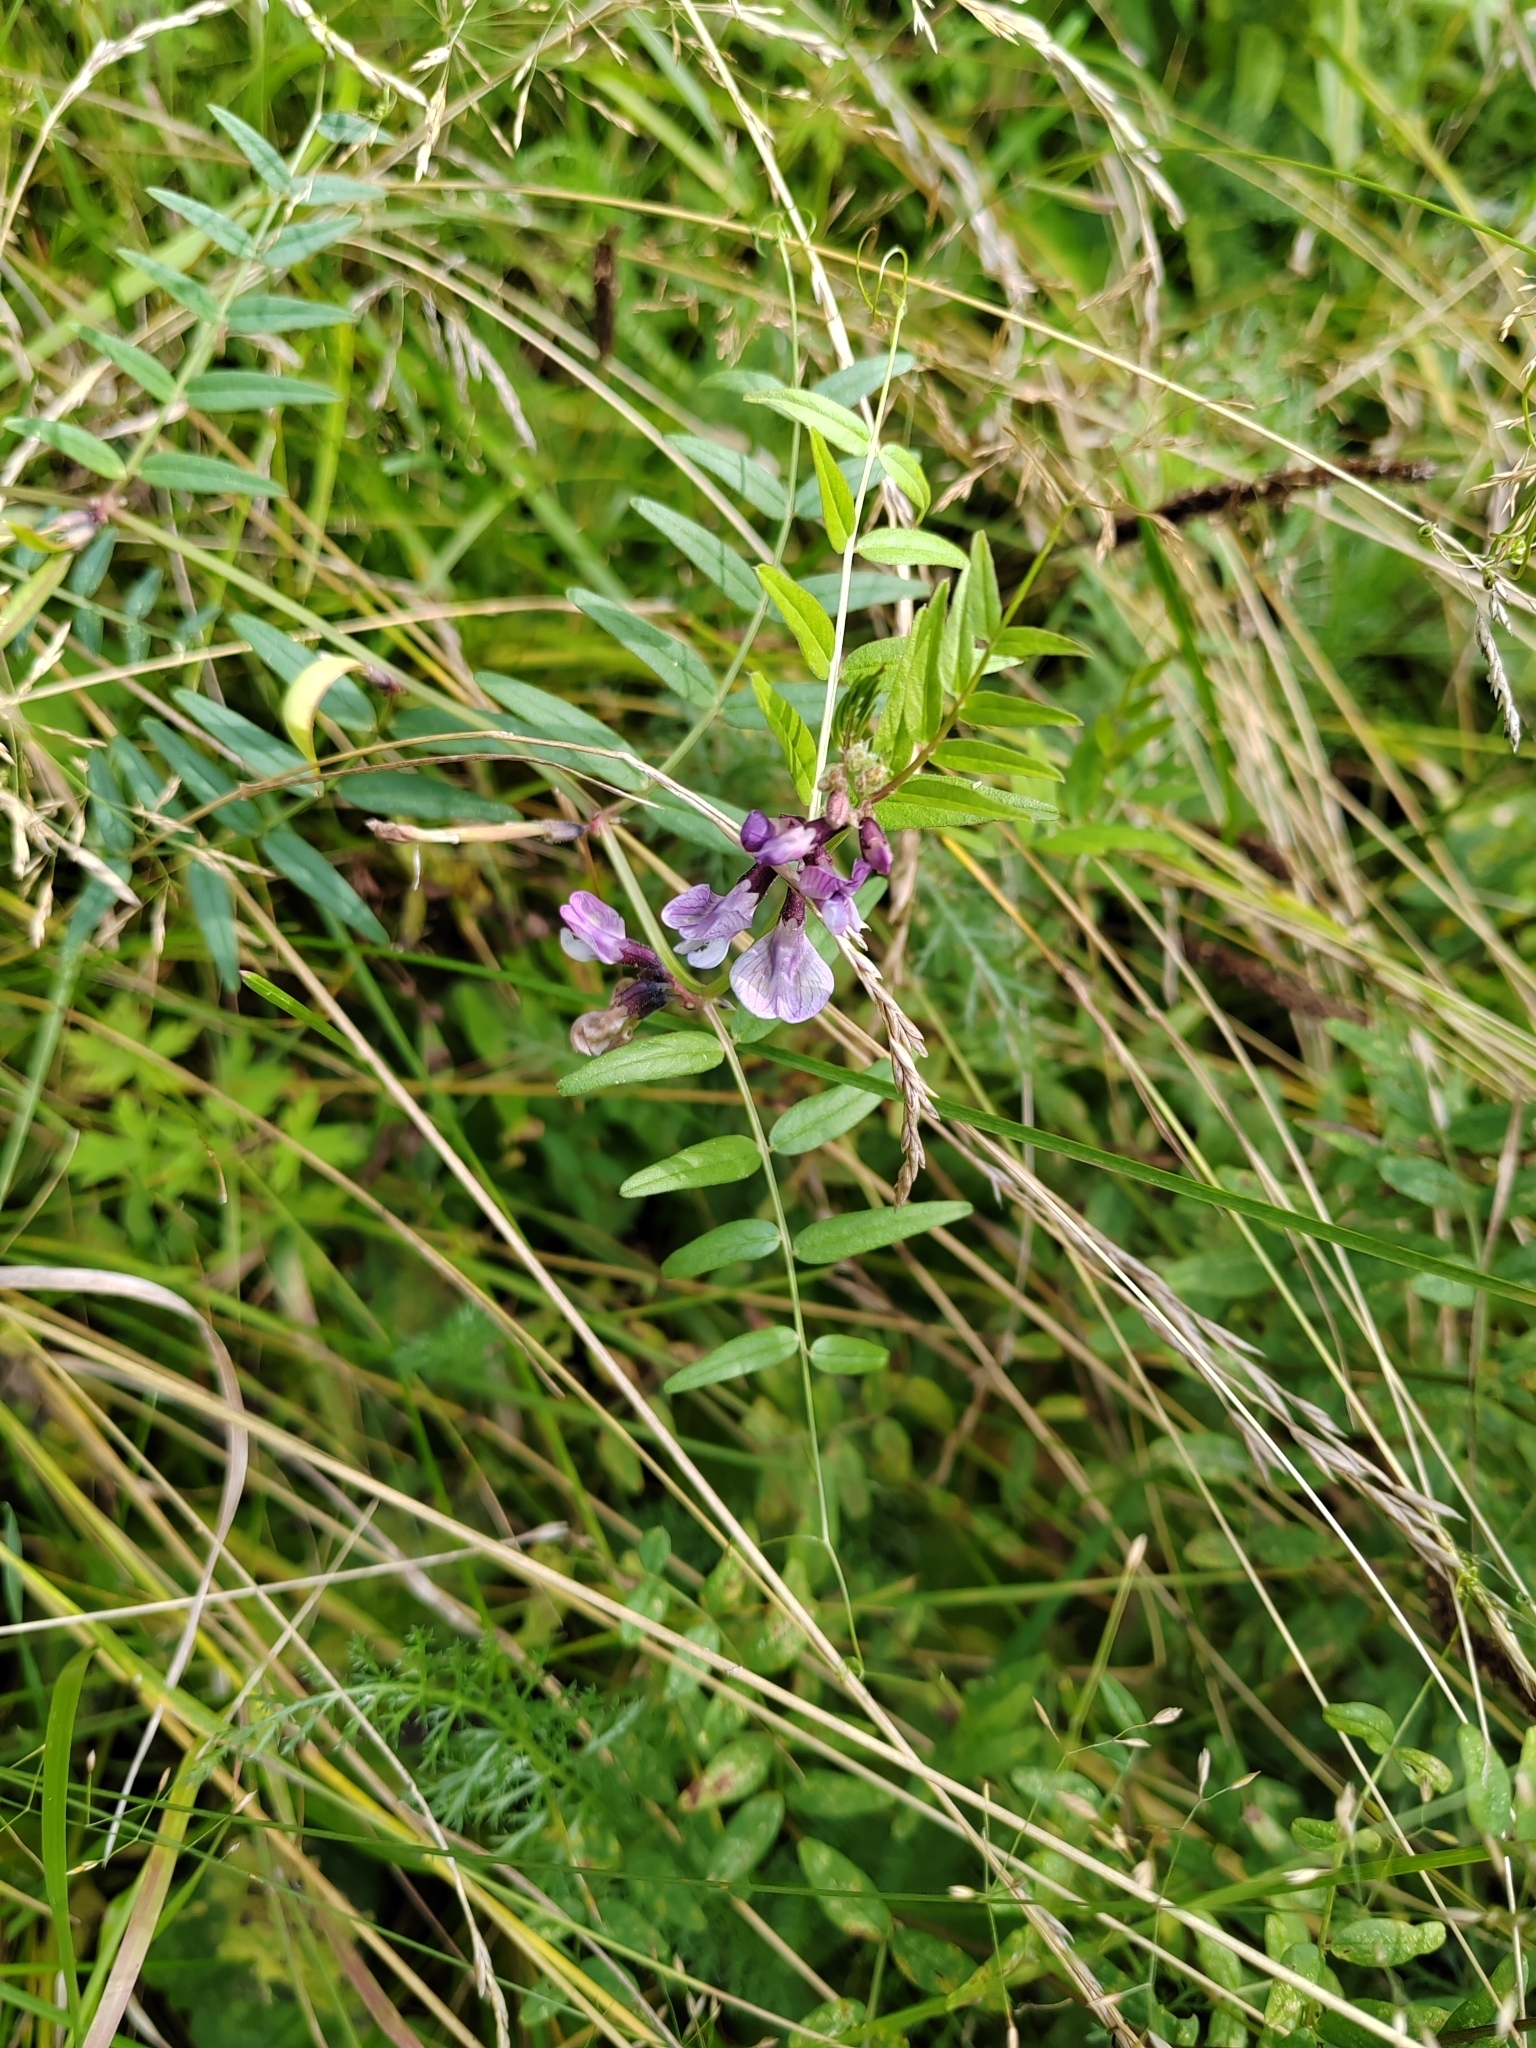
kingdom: Plantae
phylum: Tracheophyta
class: Magnoliopsida
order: Fabales
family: Fabaceae
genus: Vicia
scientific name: Vicia sepium
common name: Bush vetch
